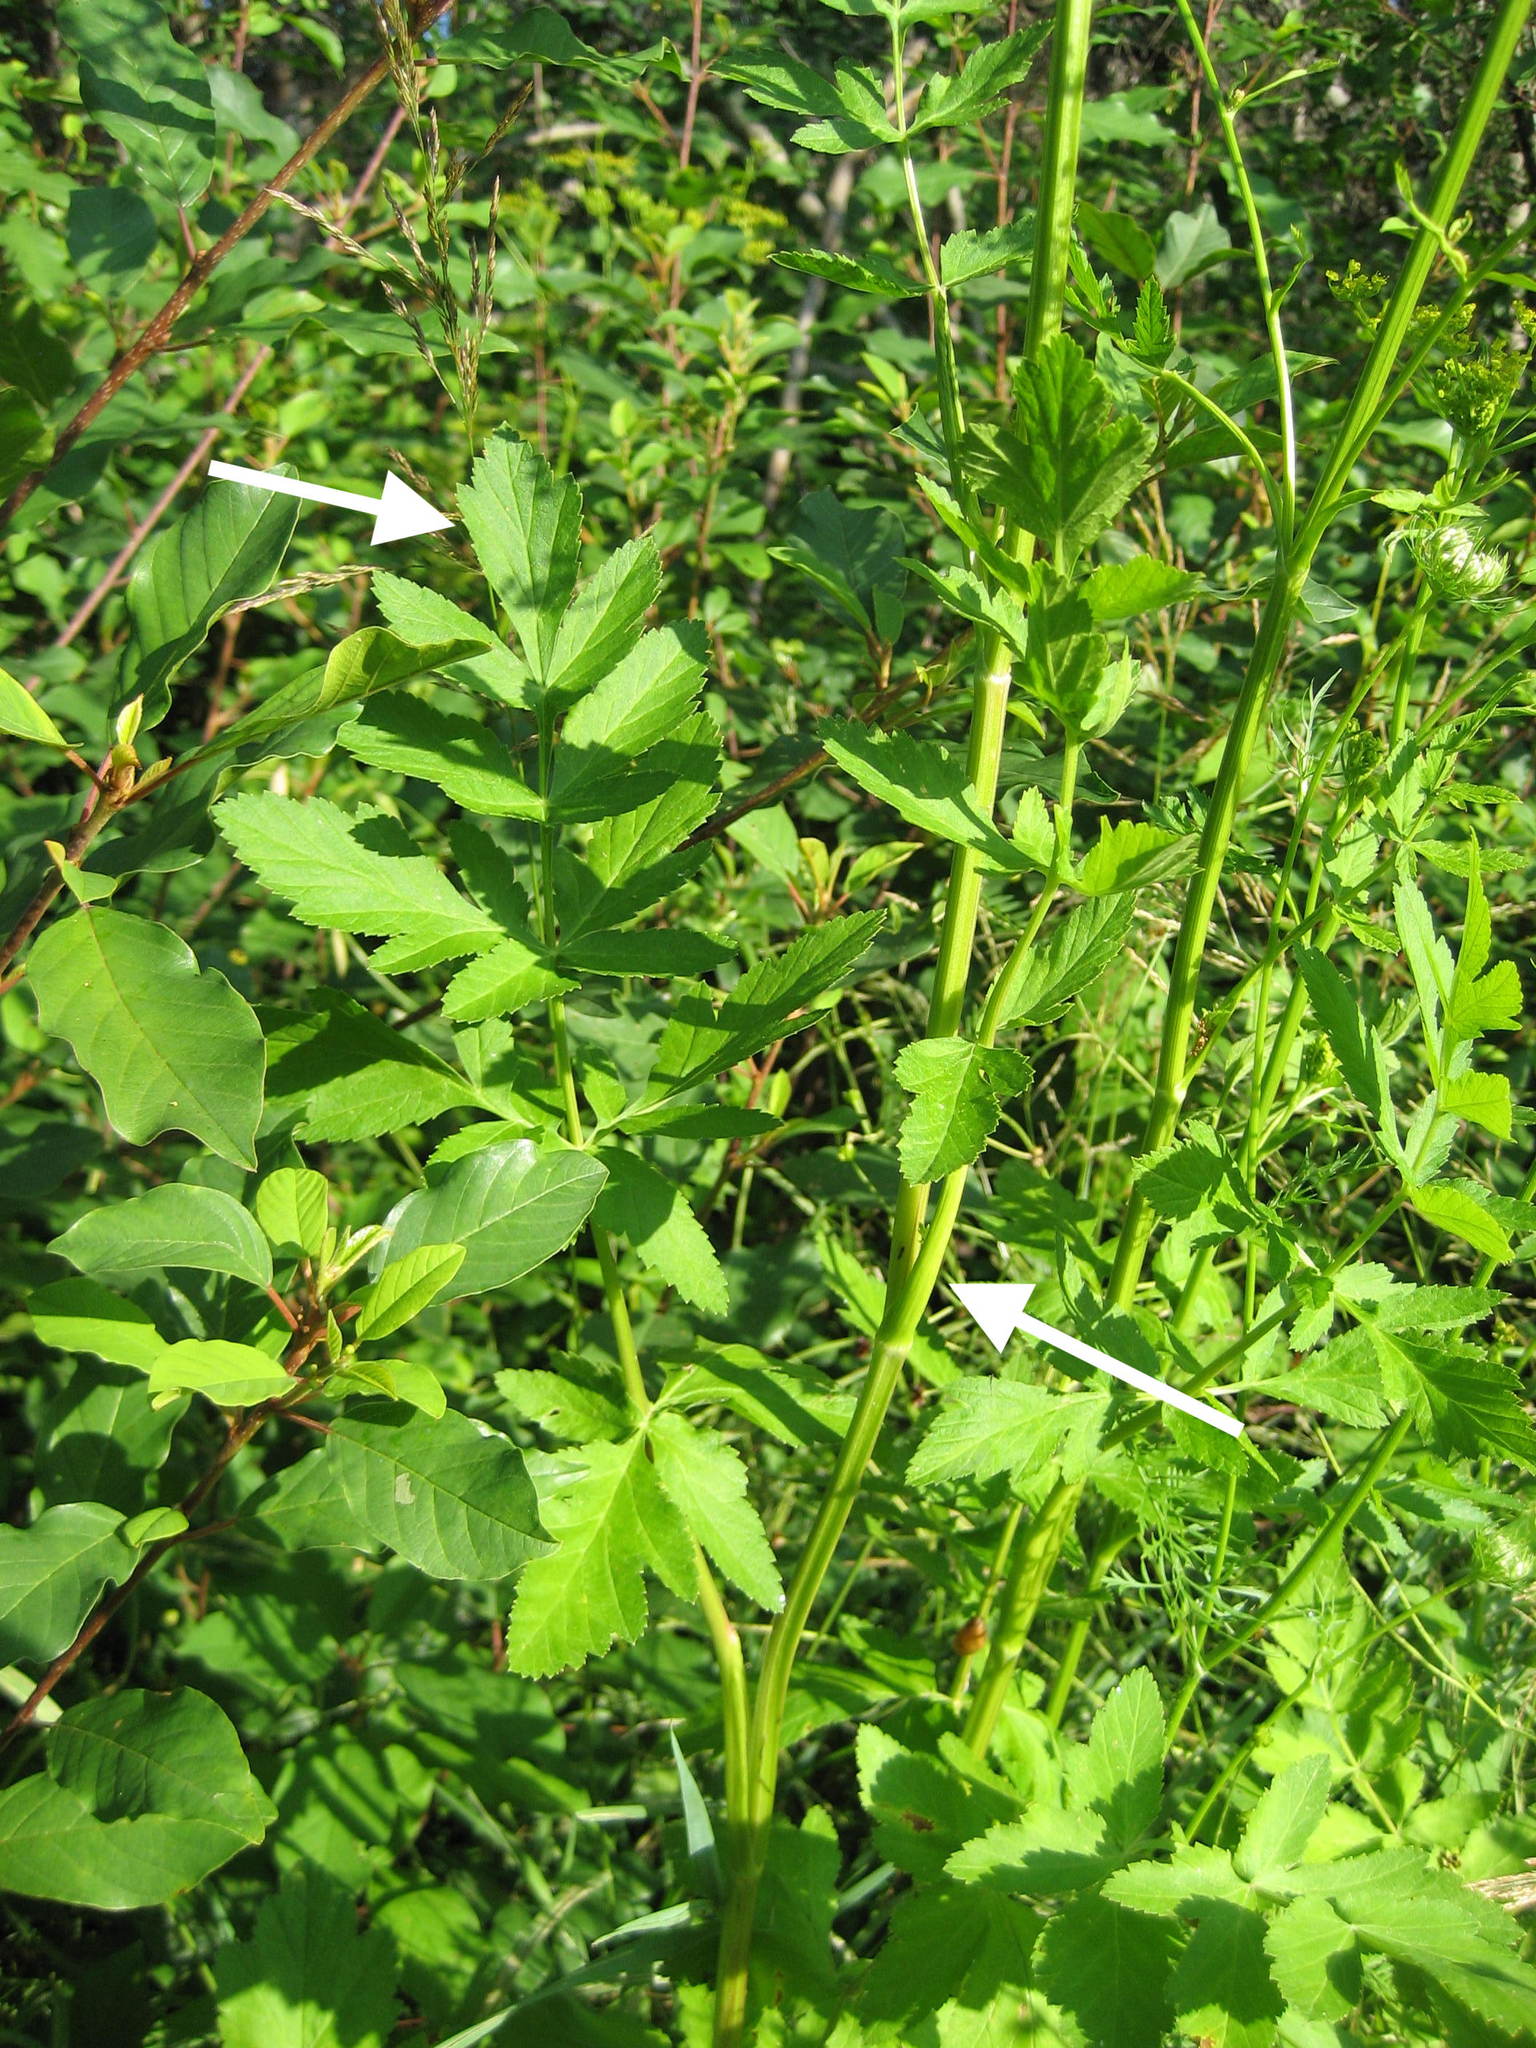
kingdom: Plantae
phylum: Tracheophyta
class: Magnoliopsida
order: Apiales
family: Apiaceae
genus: Pastinaca
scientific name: Pastinaca sativa
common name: Wild parsnip
